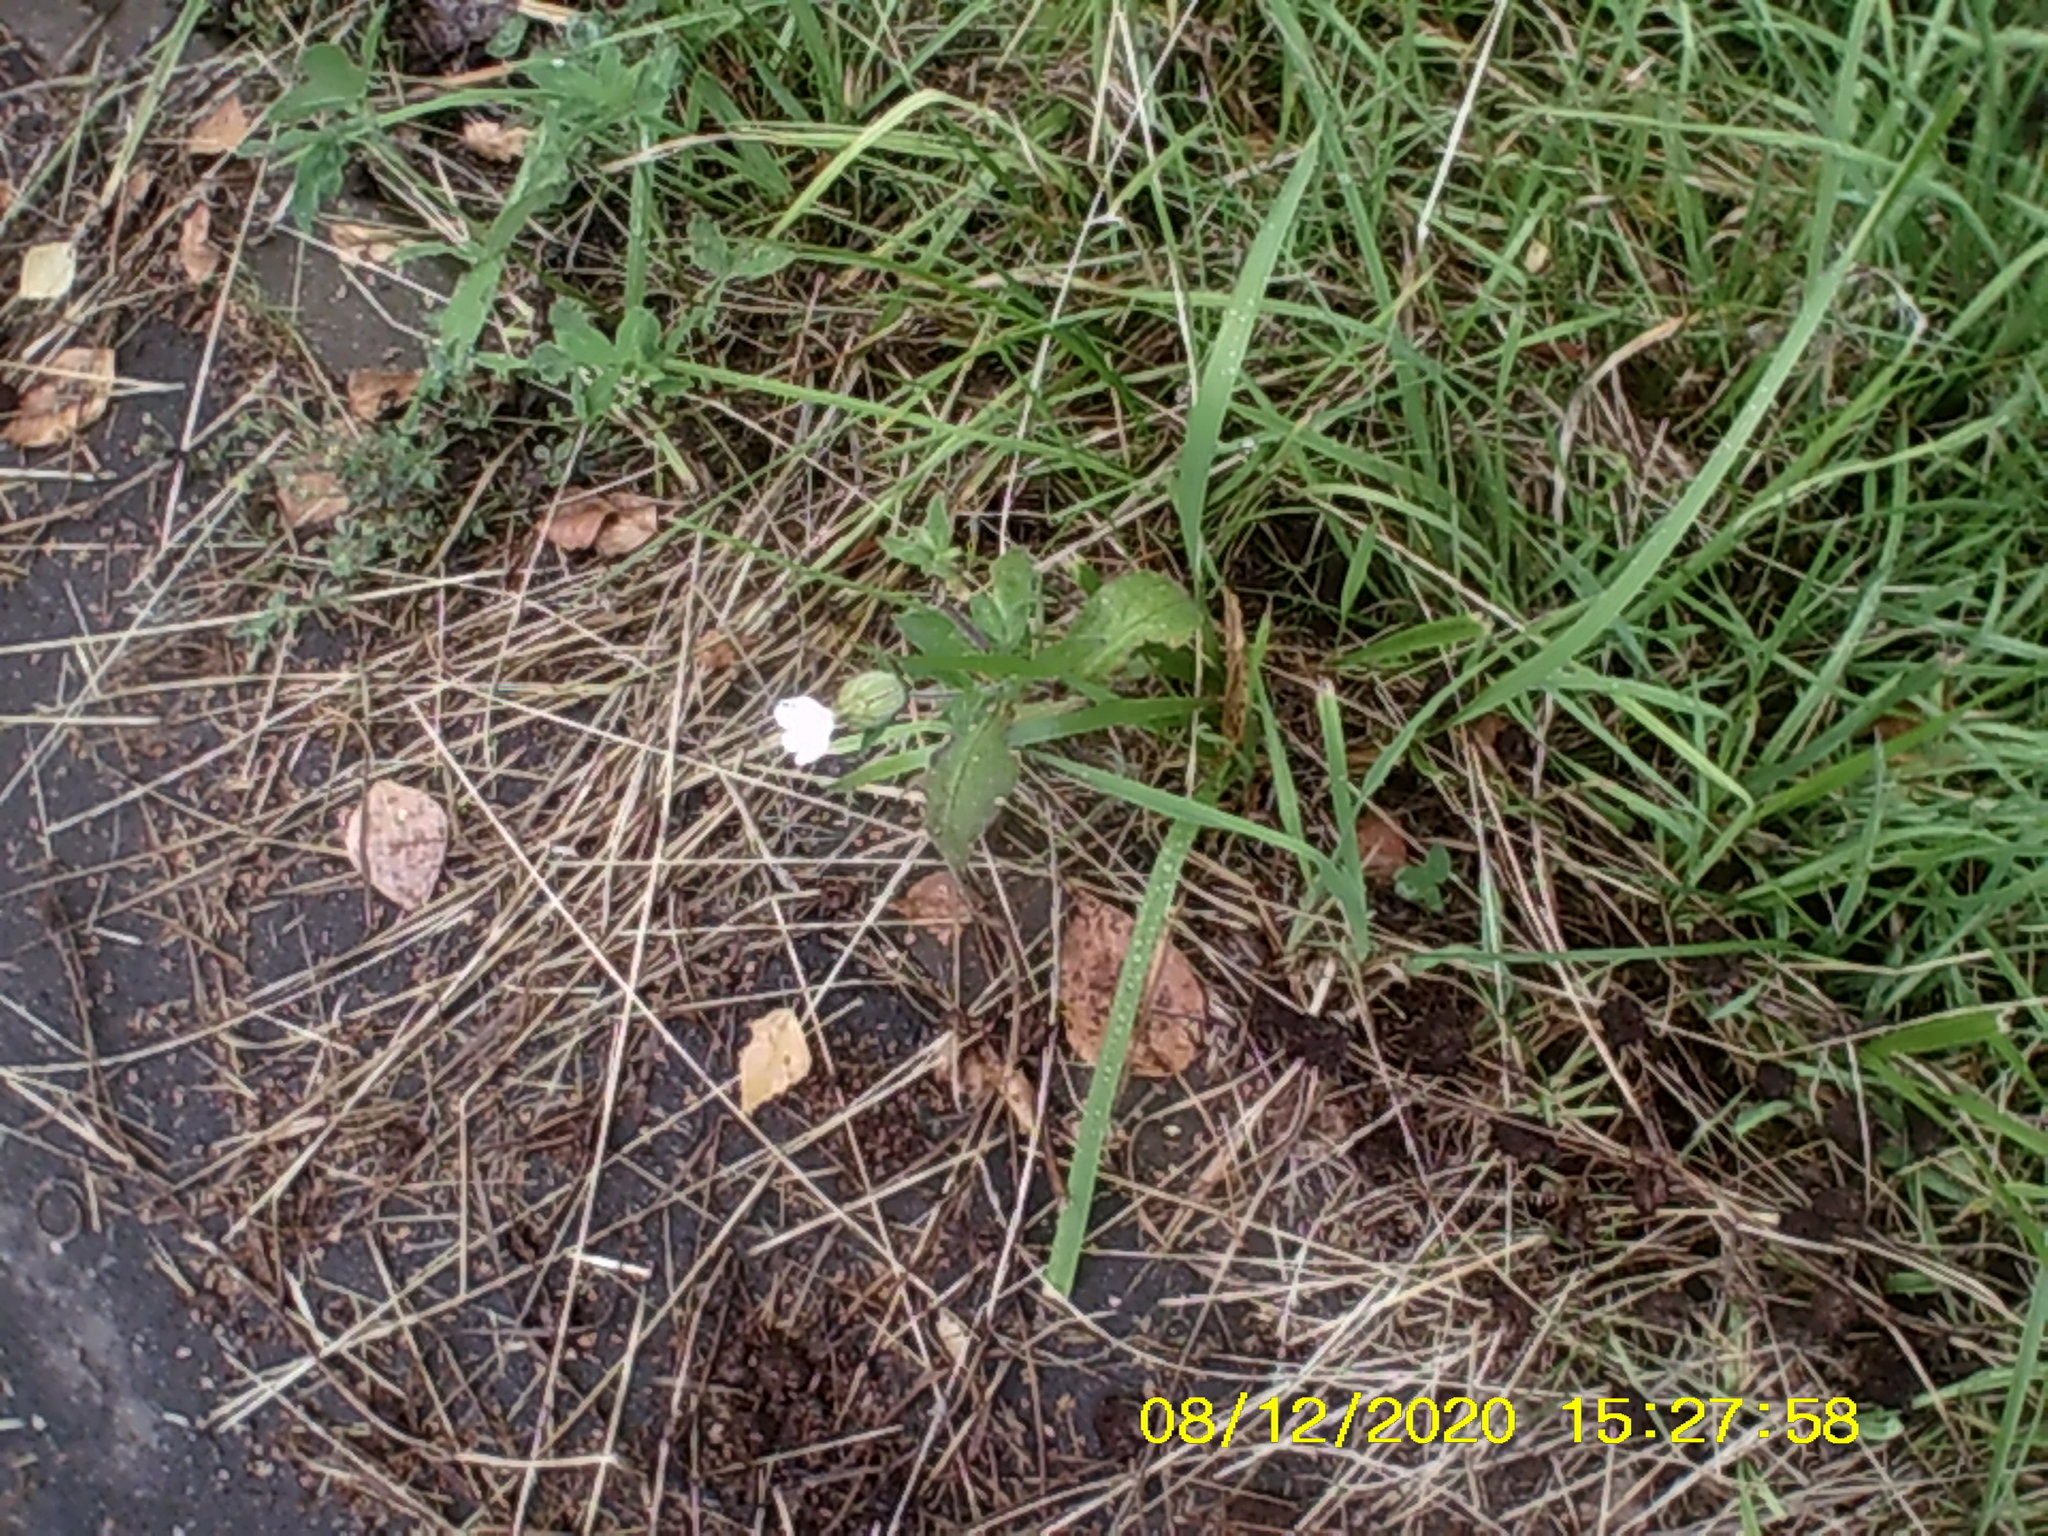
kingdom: Plantae
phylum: Tracheophyta
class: Magnoliopsida
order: Caryophyllales
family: Caryophyllaceae
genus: Silene
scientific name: Silene latifolia
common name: White campion
